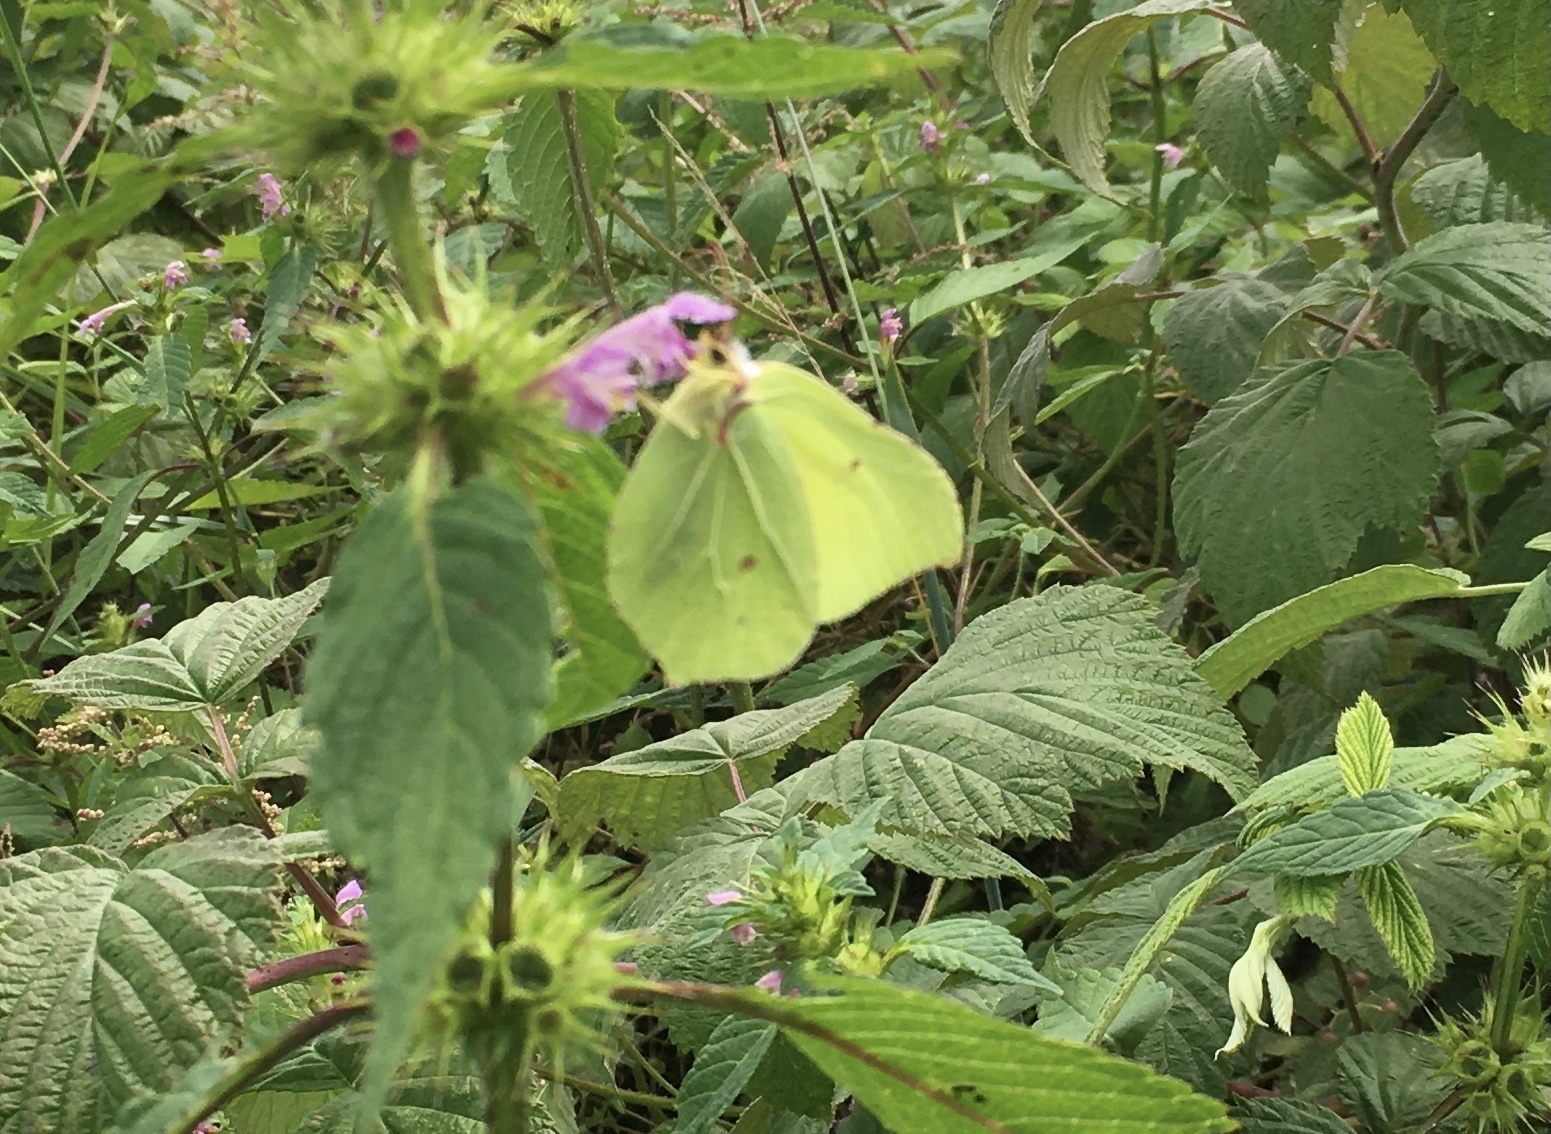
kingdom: Animalia
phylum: Arthropoda
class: Insecta
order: Lepidoptera
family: Pieridae
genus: Gonepteryx
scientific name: Gonepteryx rhamni
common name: Brimstone
